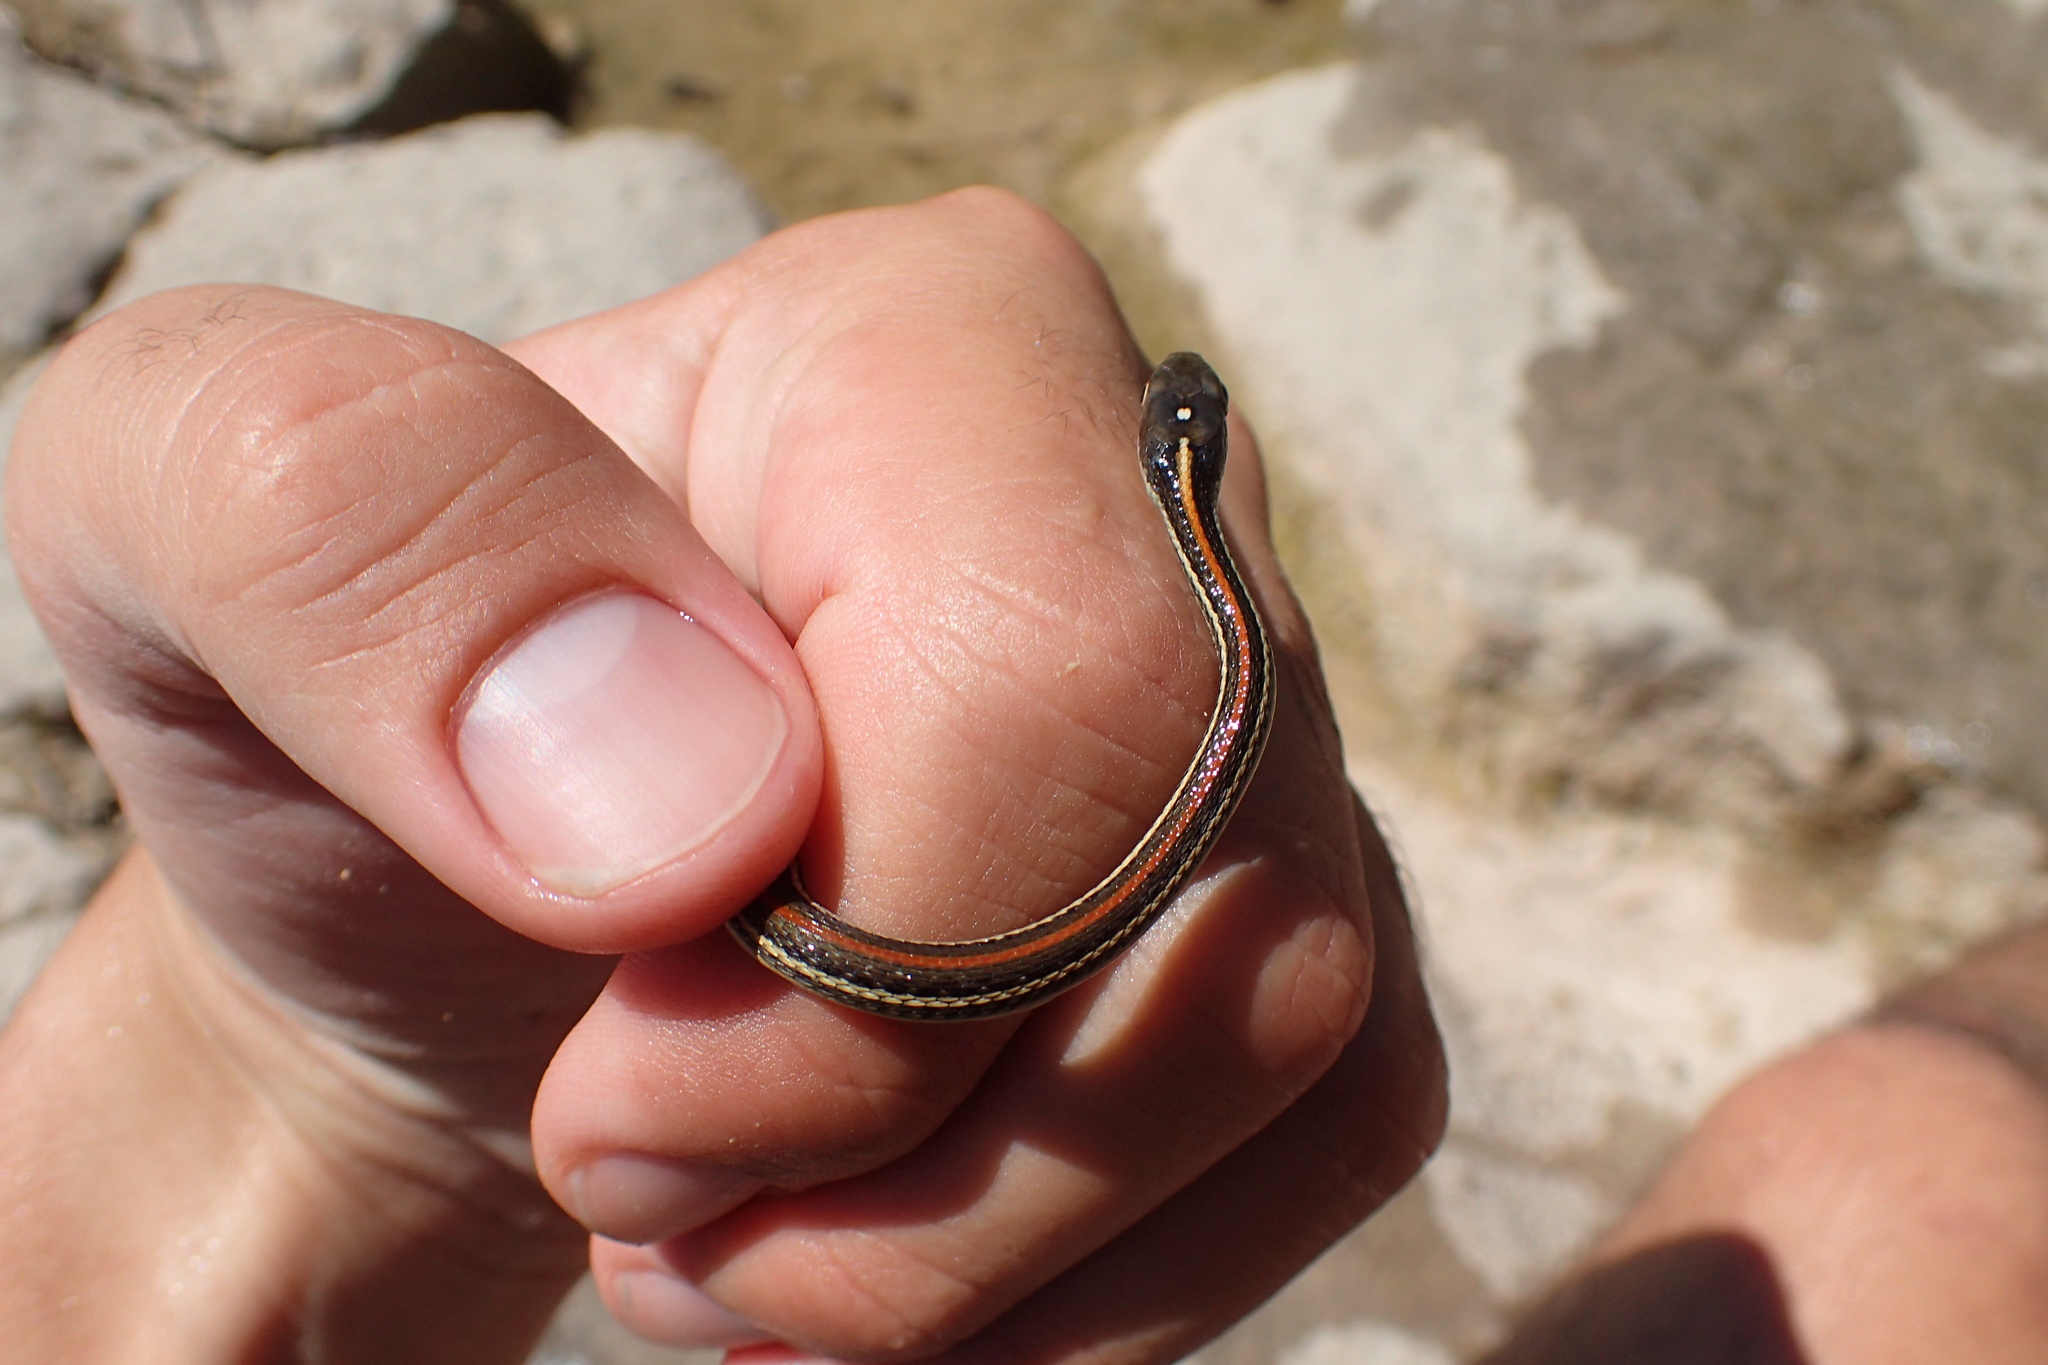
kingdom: Animalia
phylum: Chordata
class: Squamata
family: Colubridae
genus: Thamnophis
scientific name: Thamnophis proximus
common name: Western ribbon snake
